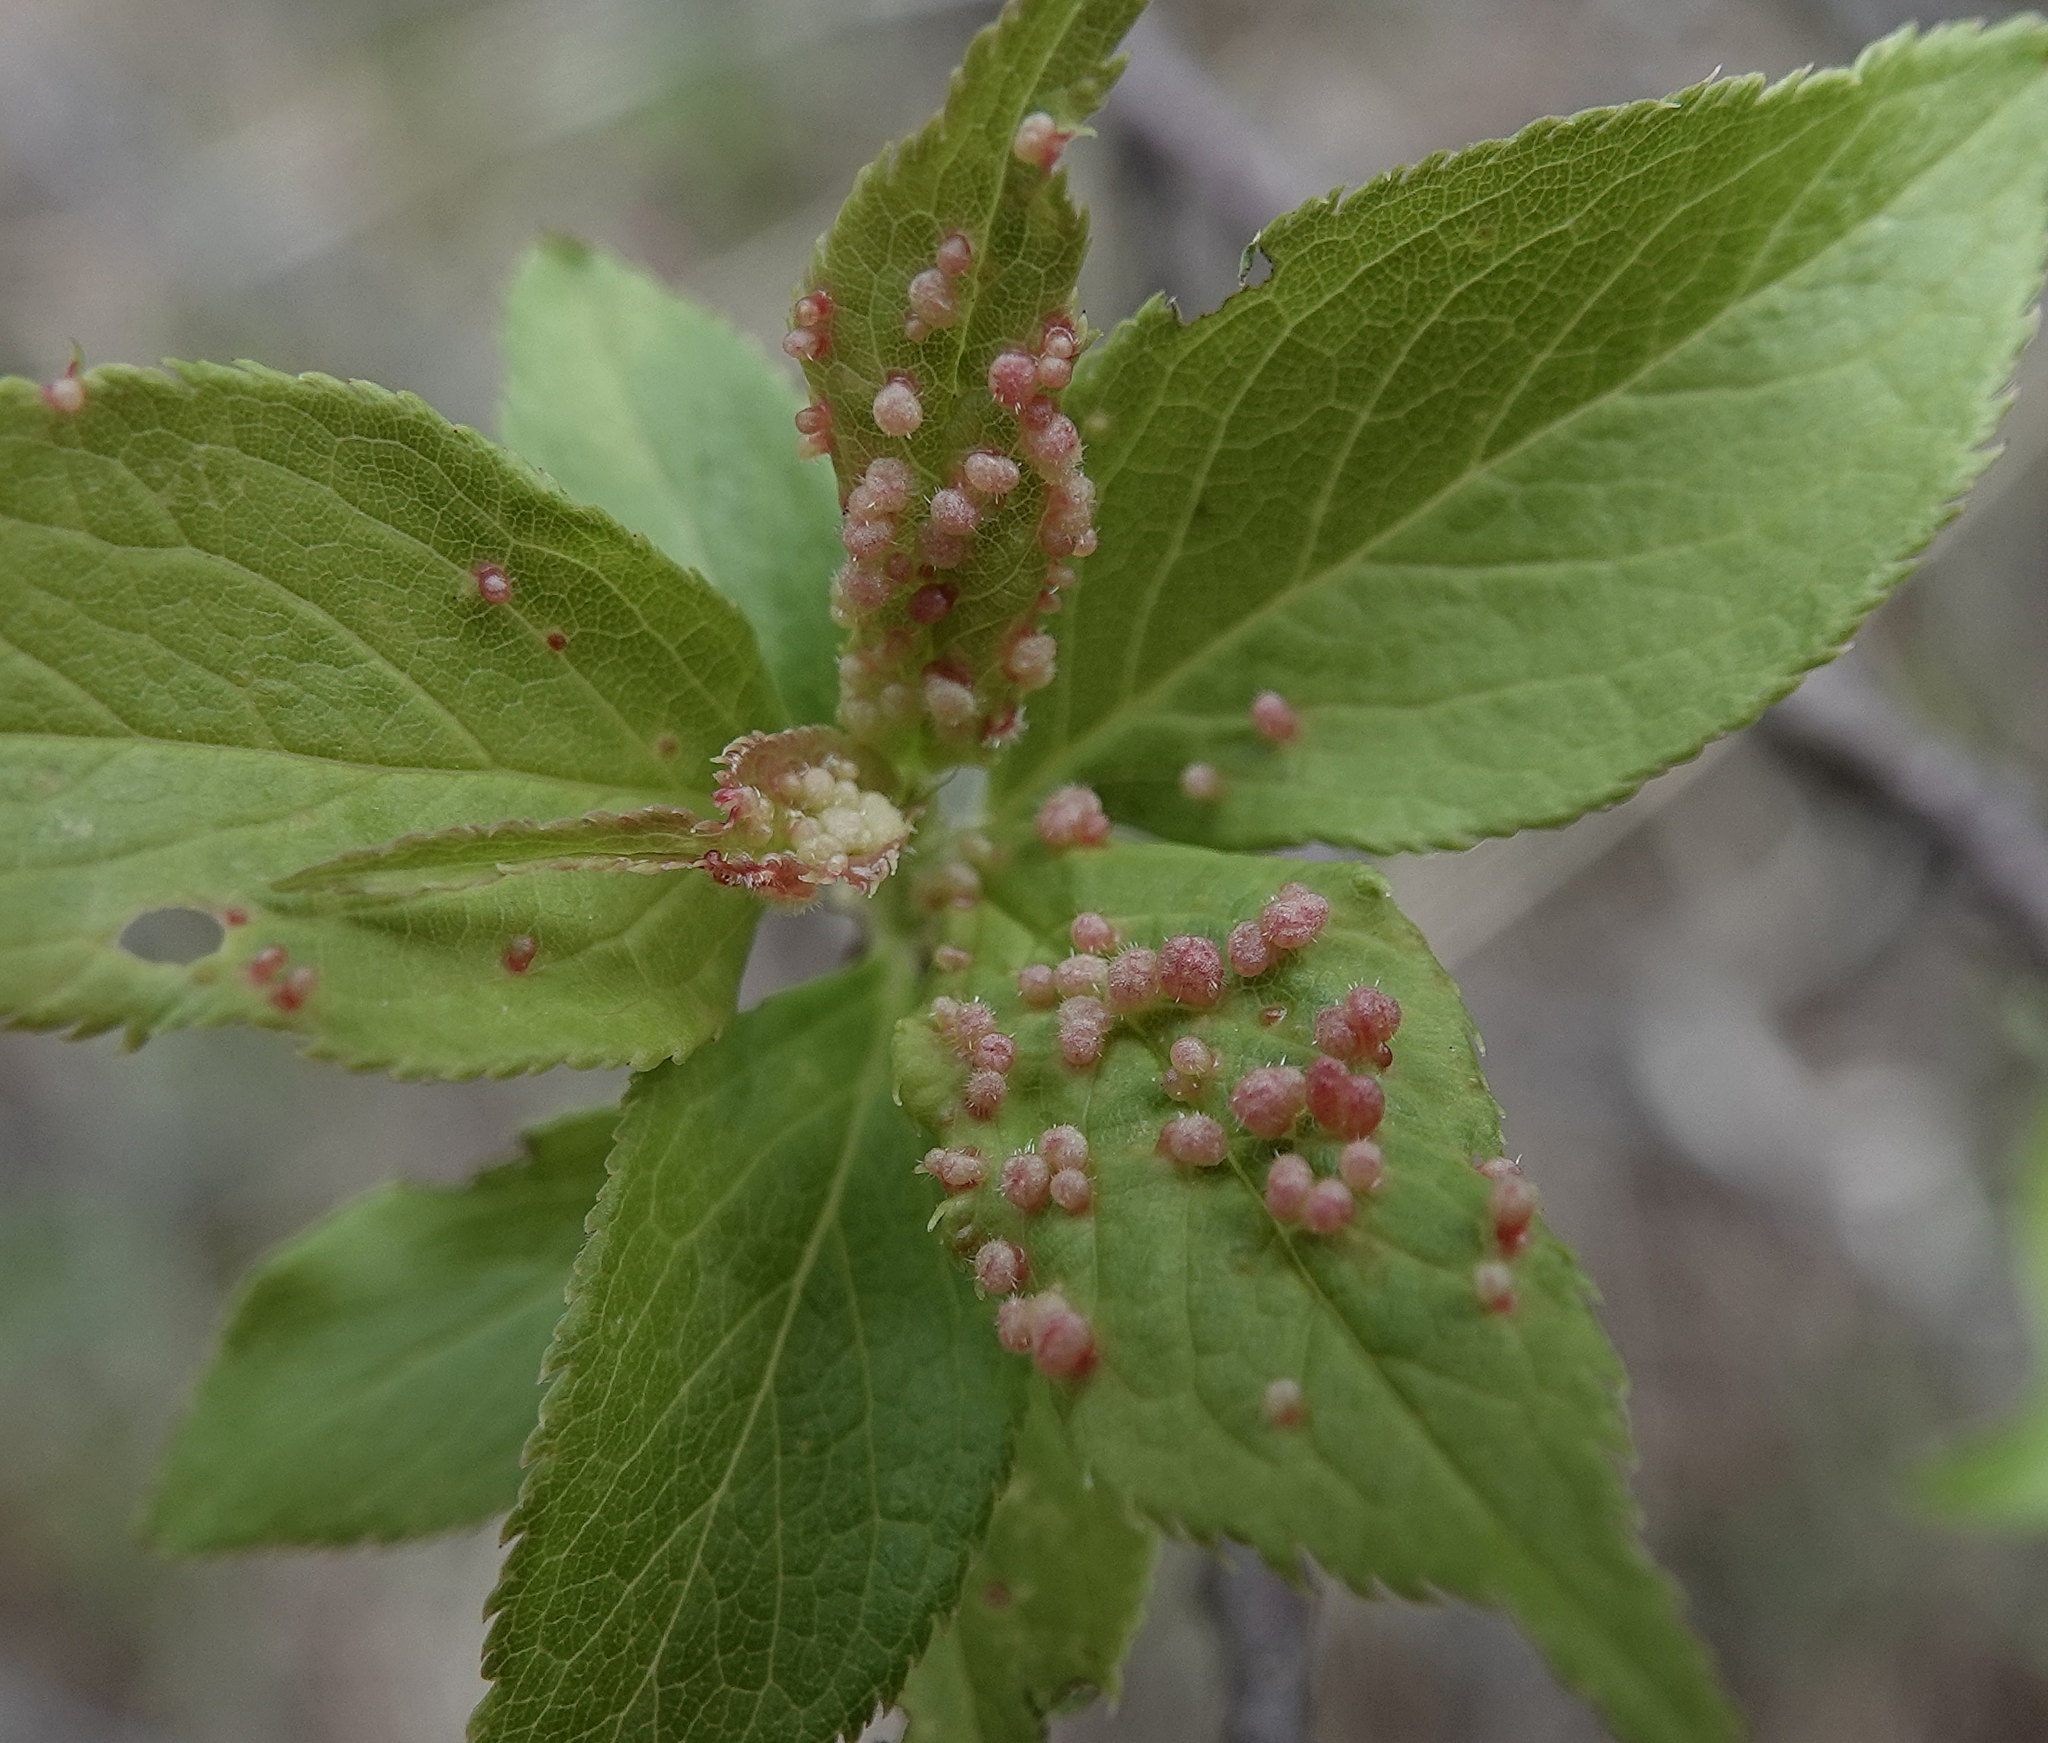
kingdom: Animalia
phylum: Arthropoda
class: Arachnida
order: Trombidiformes
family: Eriophyidae
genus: Eriophyes
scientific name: Eriophyes emarginatae
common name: Plum leaf gall mite
